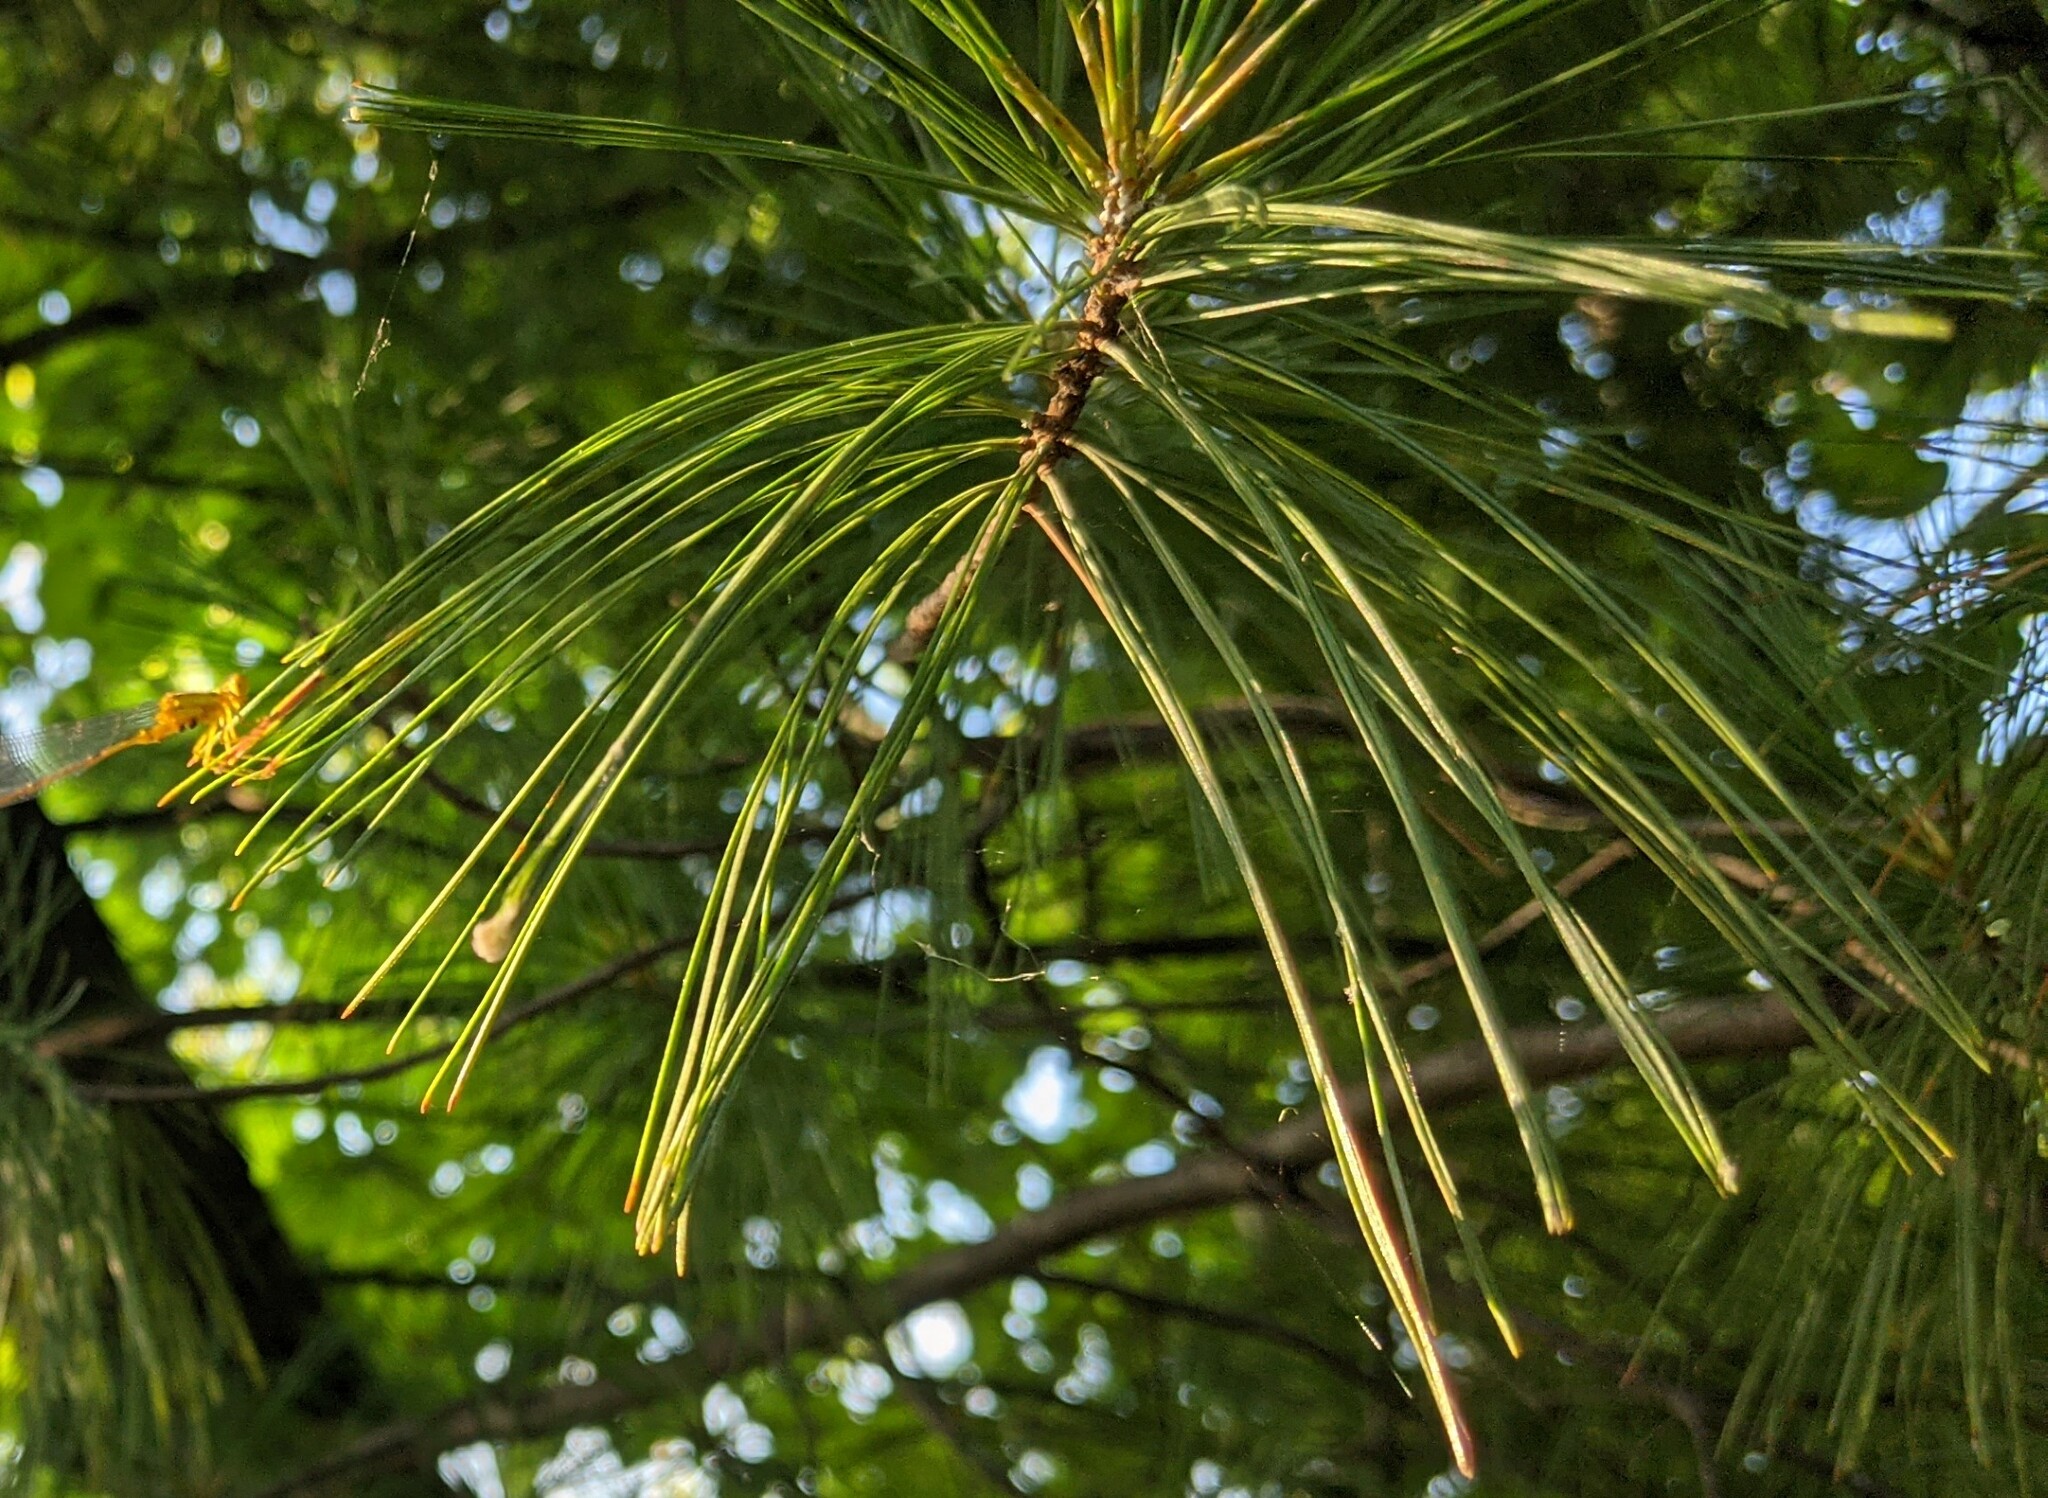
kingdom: Animalia
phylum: Arthropoda
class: Insecta
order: Odonata
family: Coenagrionidae
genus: Enallagma
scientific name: Enallagma vesperum
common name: Vesper bluet
